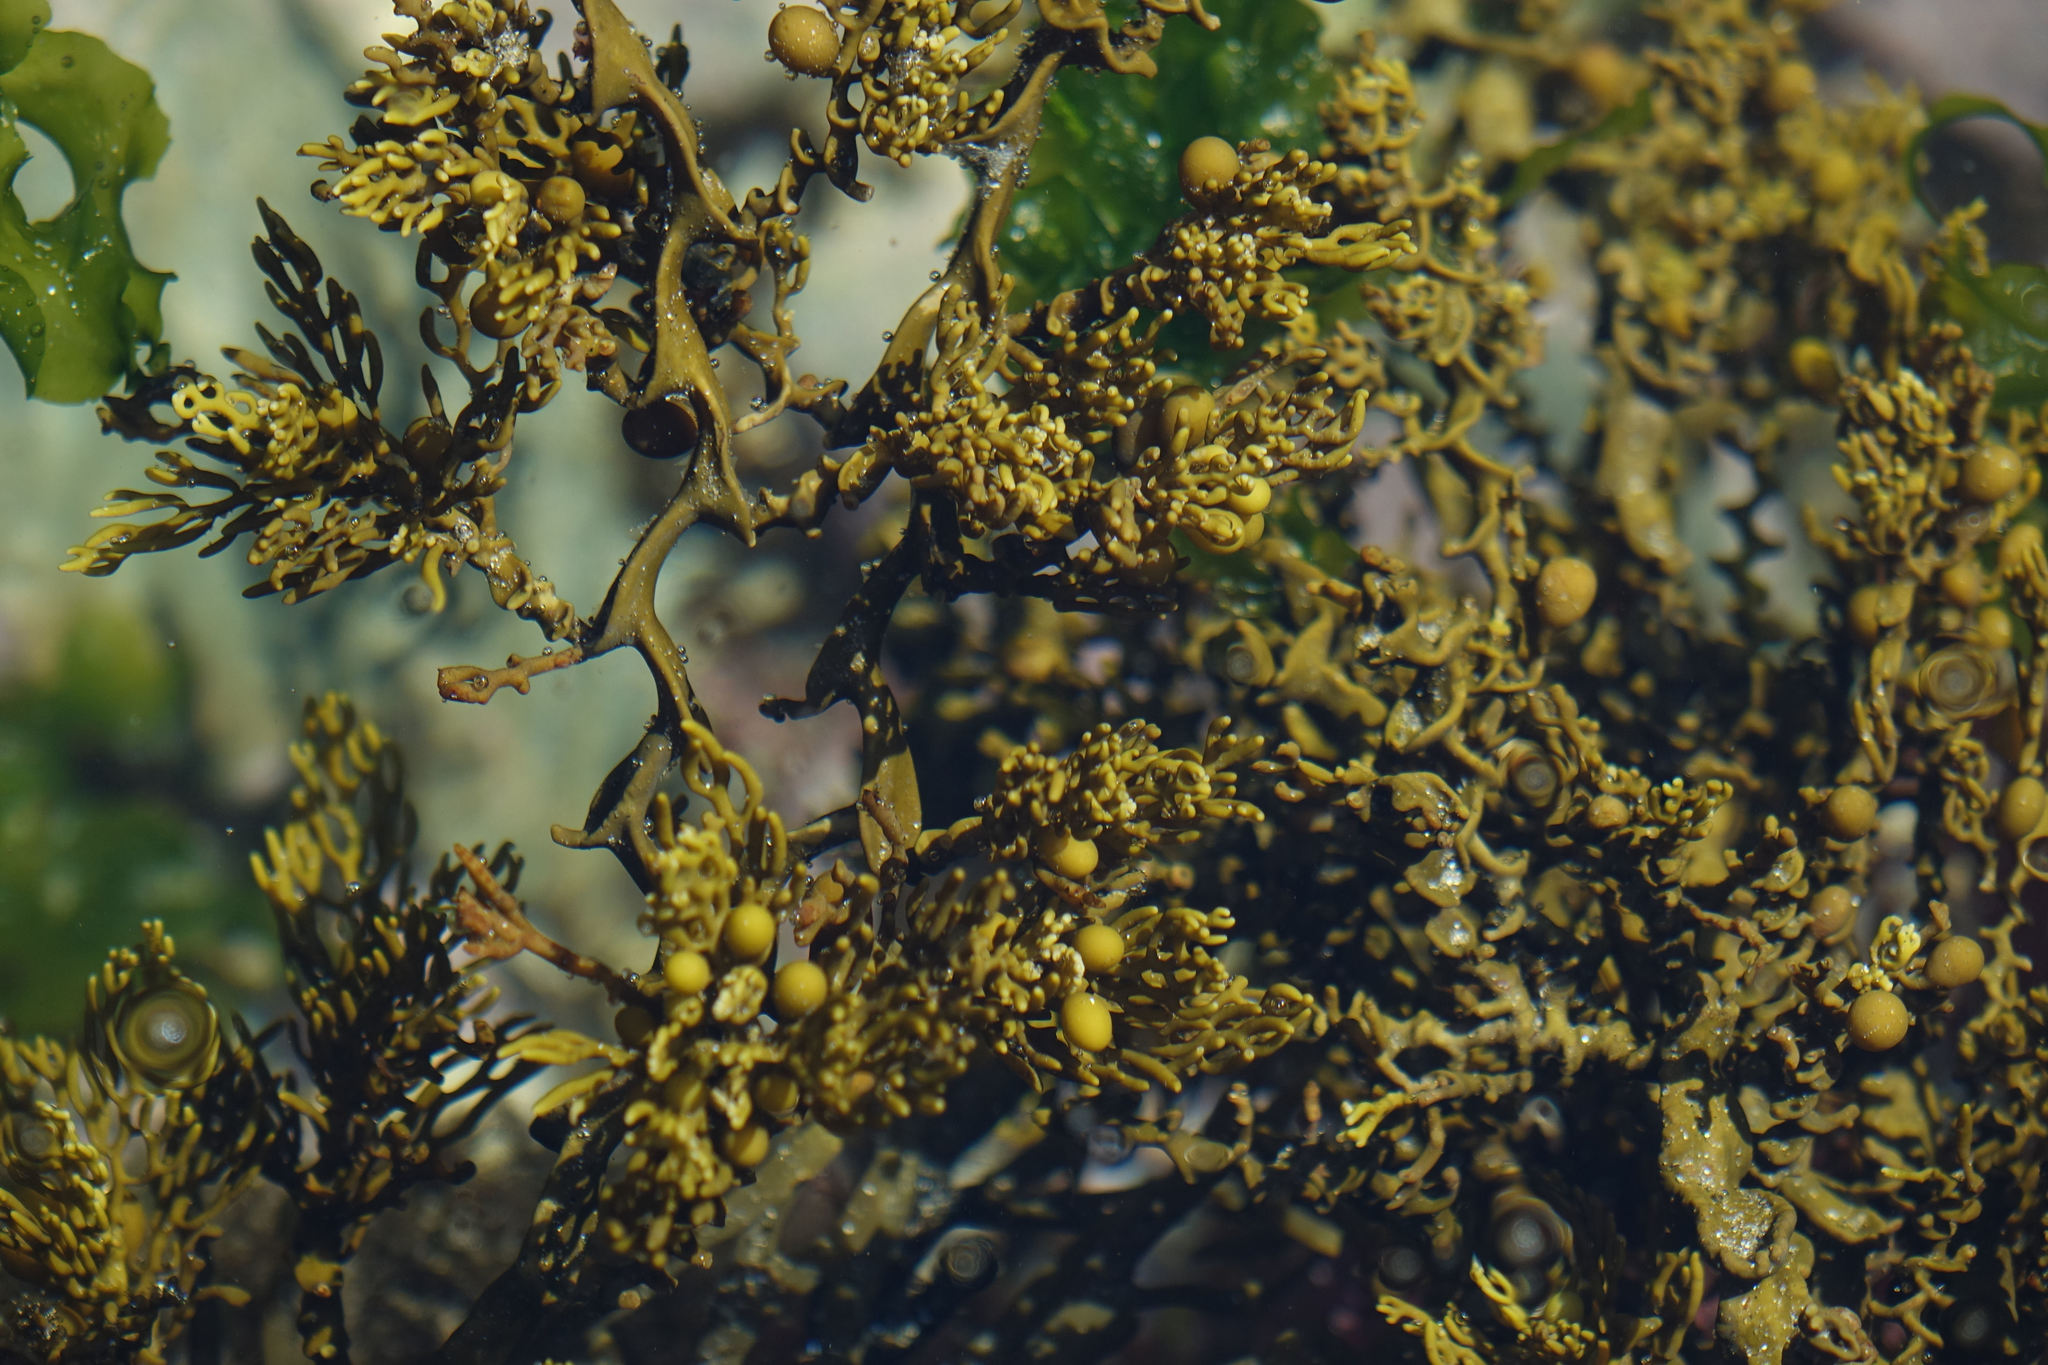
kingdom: Chromista
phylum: Ochrophyta
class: Phaeophyceae
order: Fucales
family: Sargassaceae
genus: Cystophora
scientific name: Cystophora scalaris
